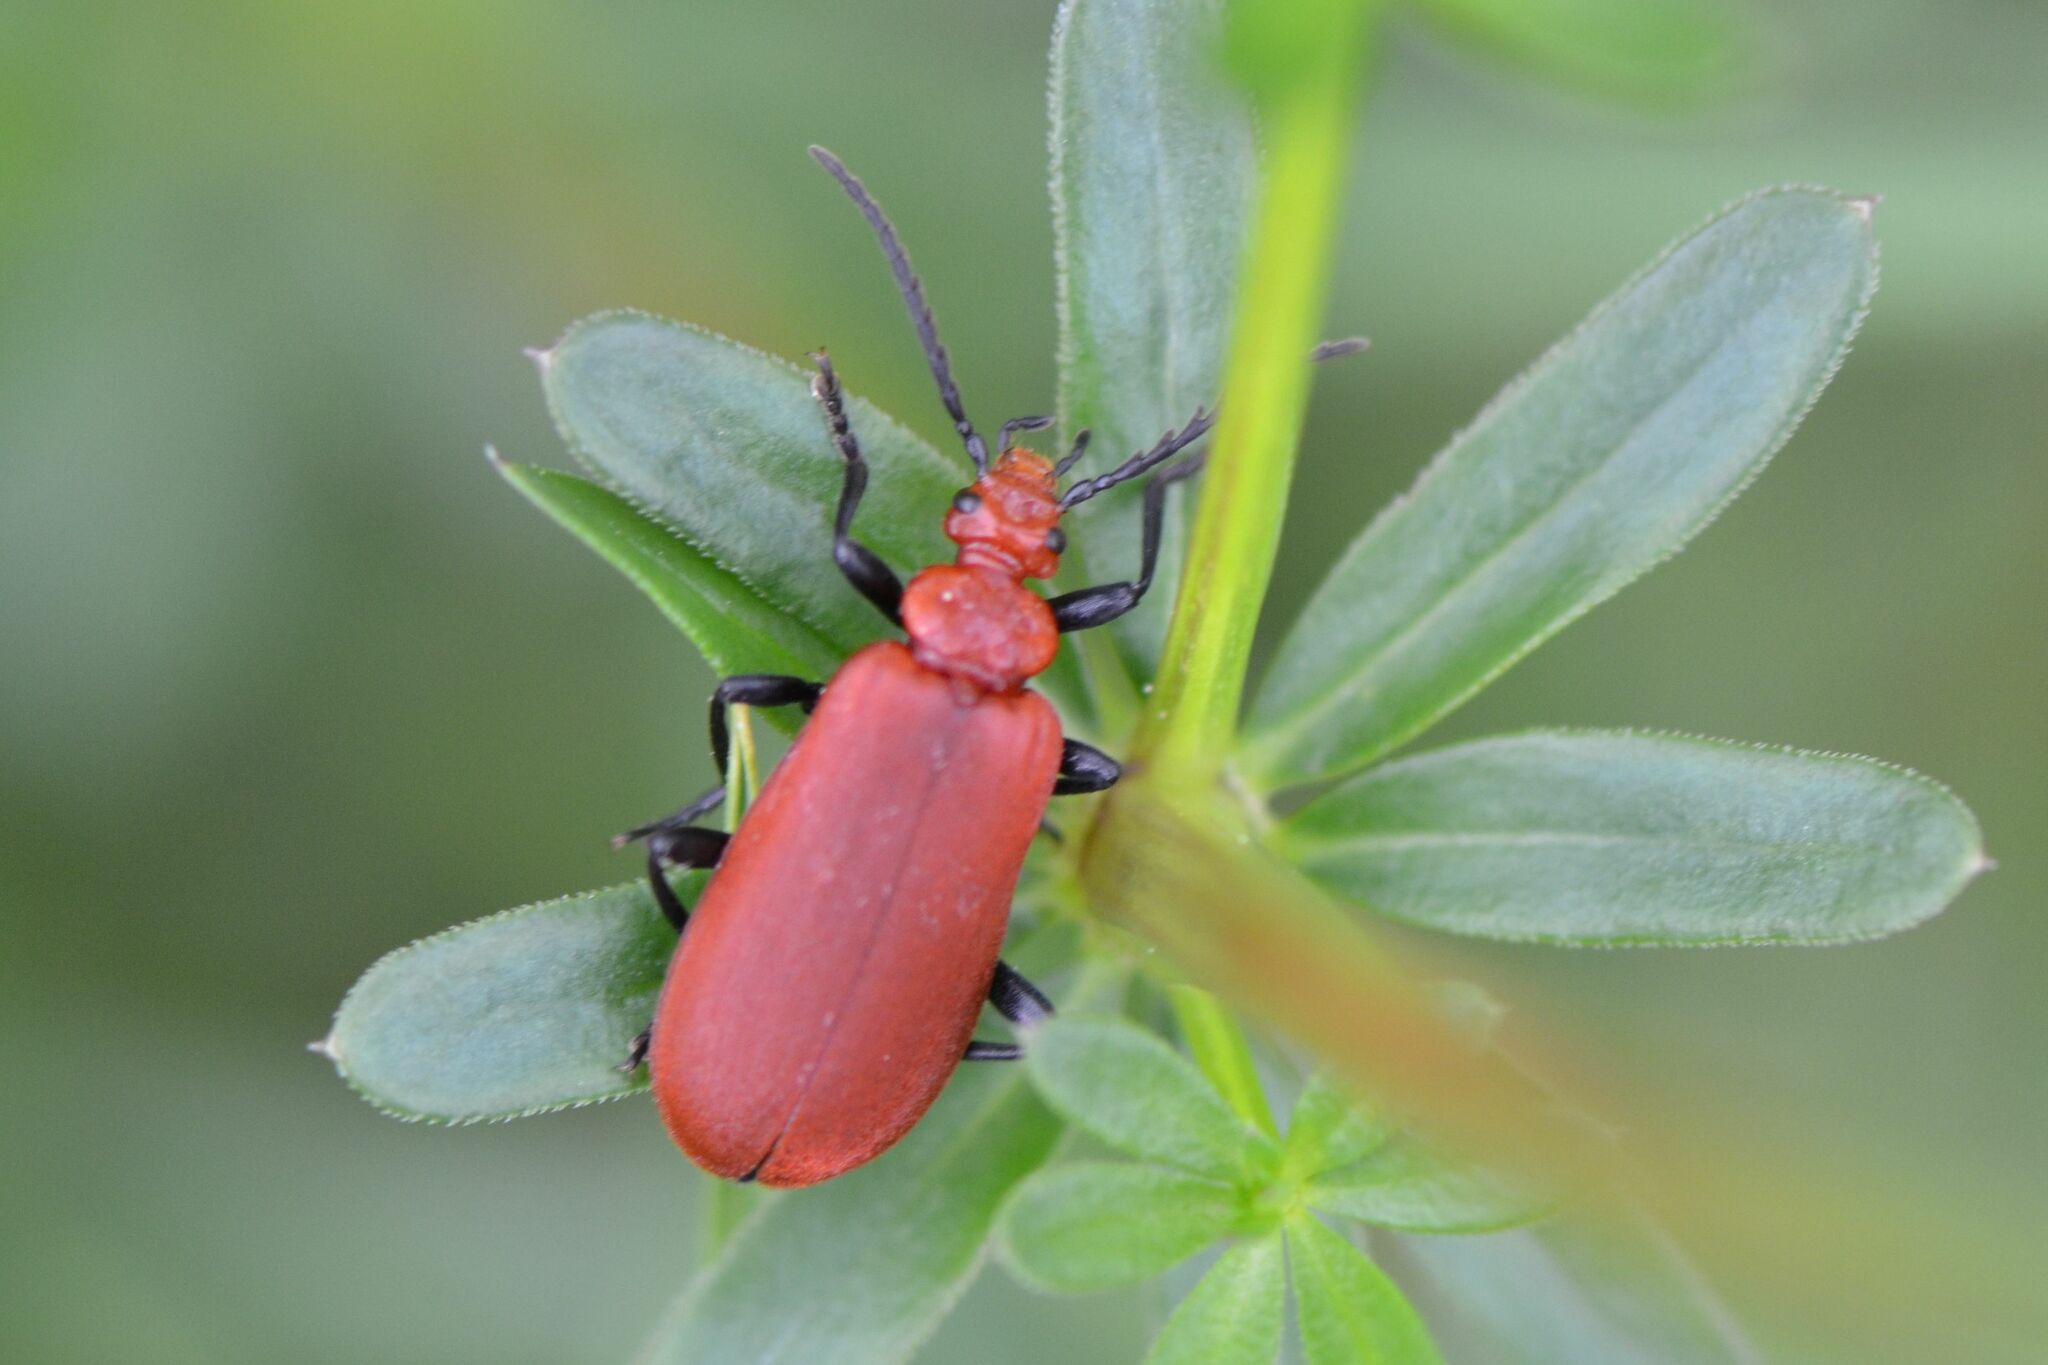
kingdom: Animalia
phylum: Arthropoda
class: Insecta
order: Coleoptera
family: Pyrochroidae
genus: Pyrochroa
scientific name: Pyrochroa serraticornis
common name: Red-headed cardinal beetle
